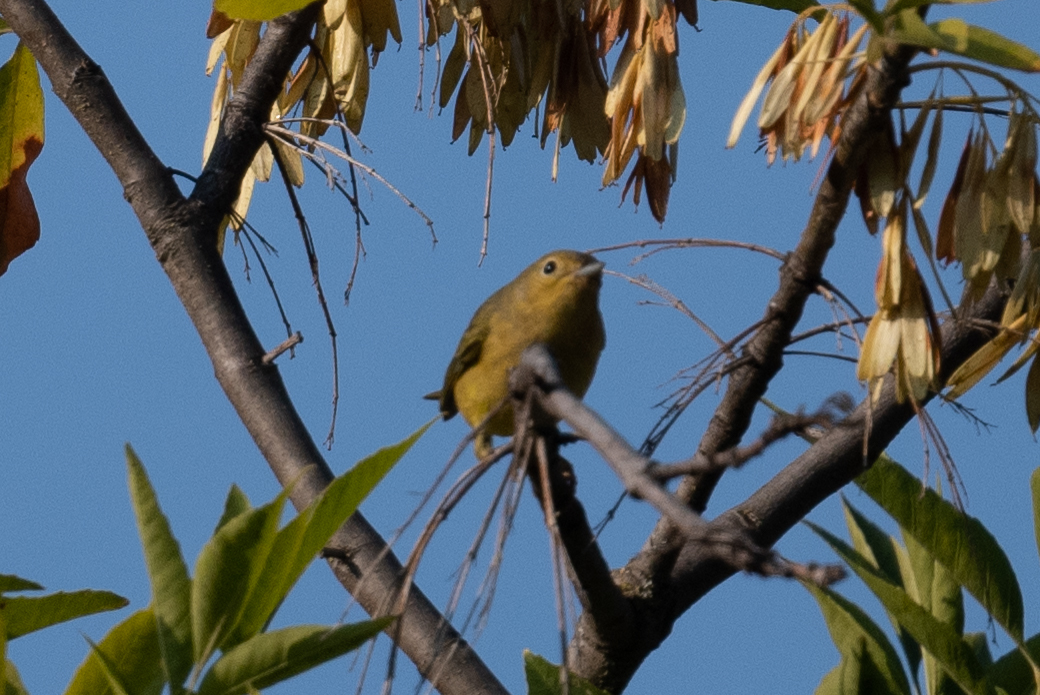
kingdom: Animalia
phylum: Chordata
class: Aves
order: Passeriformes
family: Parulidae
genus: Setophaga
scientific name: Setophaga petechia
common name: Yellow warbler
